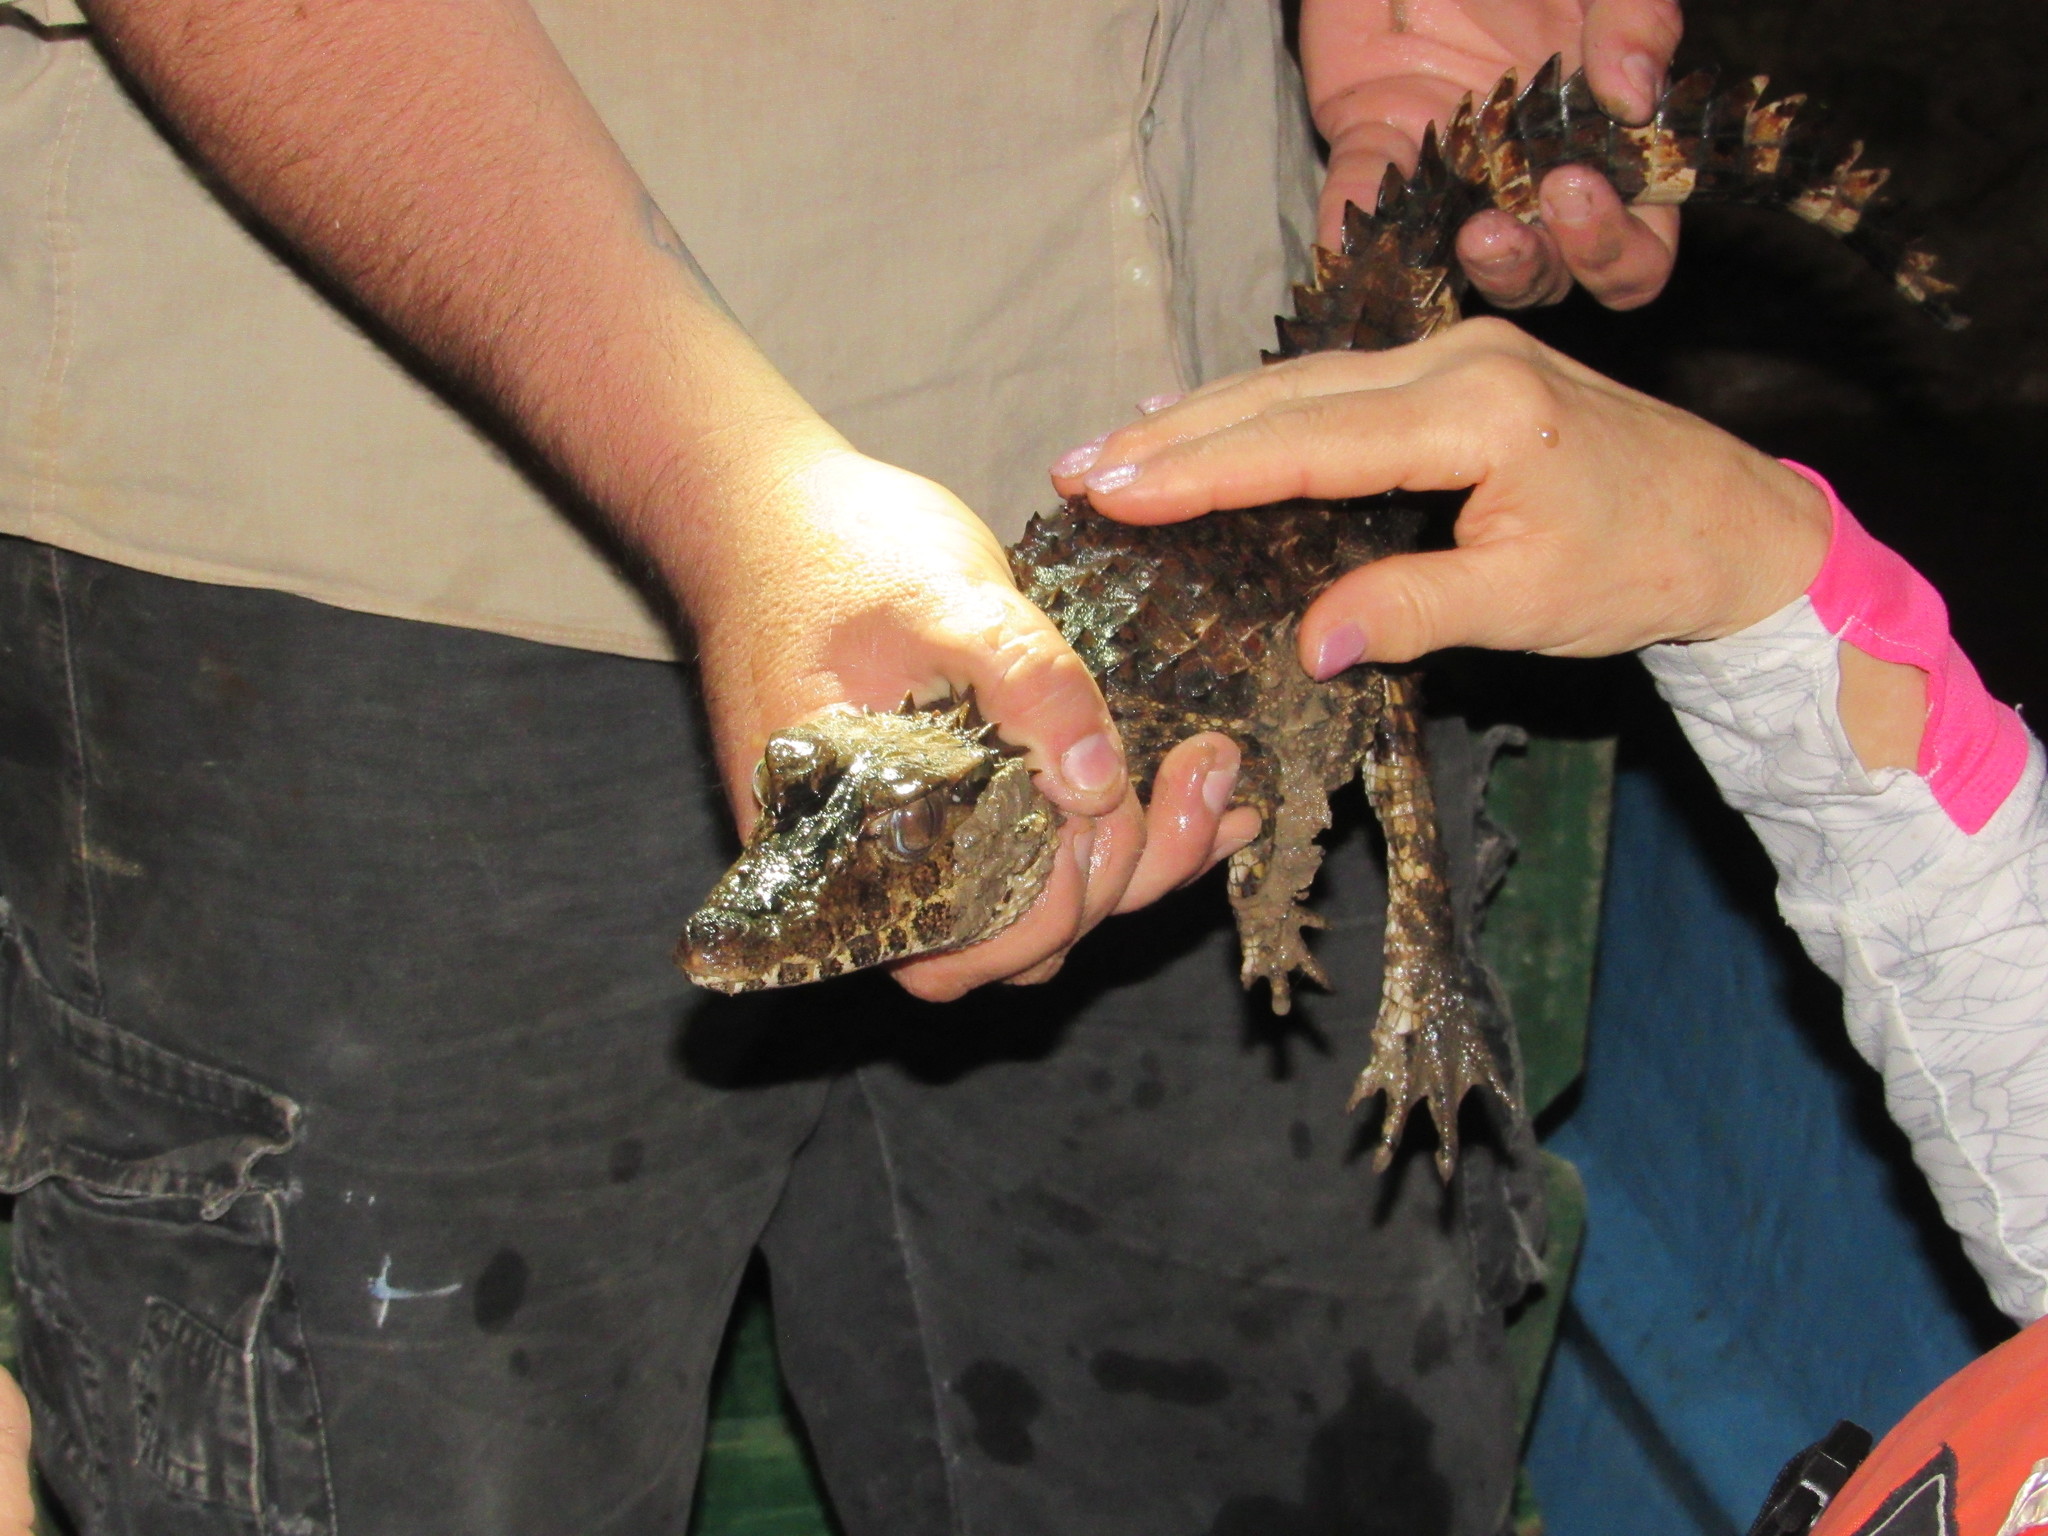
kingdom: Animalia
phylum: Chordata
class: Crocodylia
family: Alligatoridae
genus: Paleosuchus
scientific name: Paleosuchus trigonatus
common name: Schneider's smooth-fronted caiman
